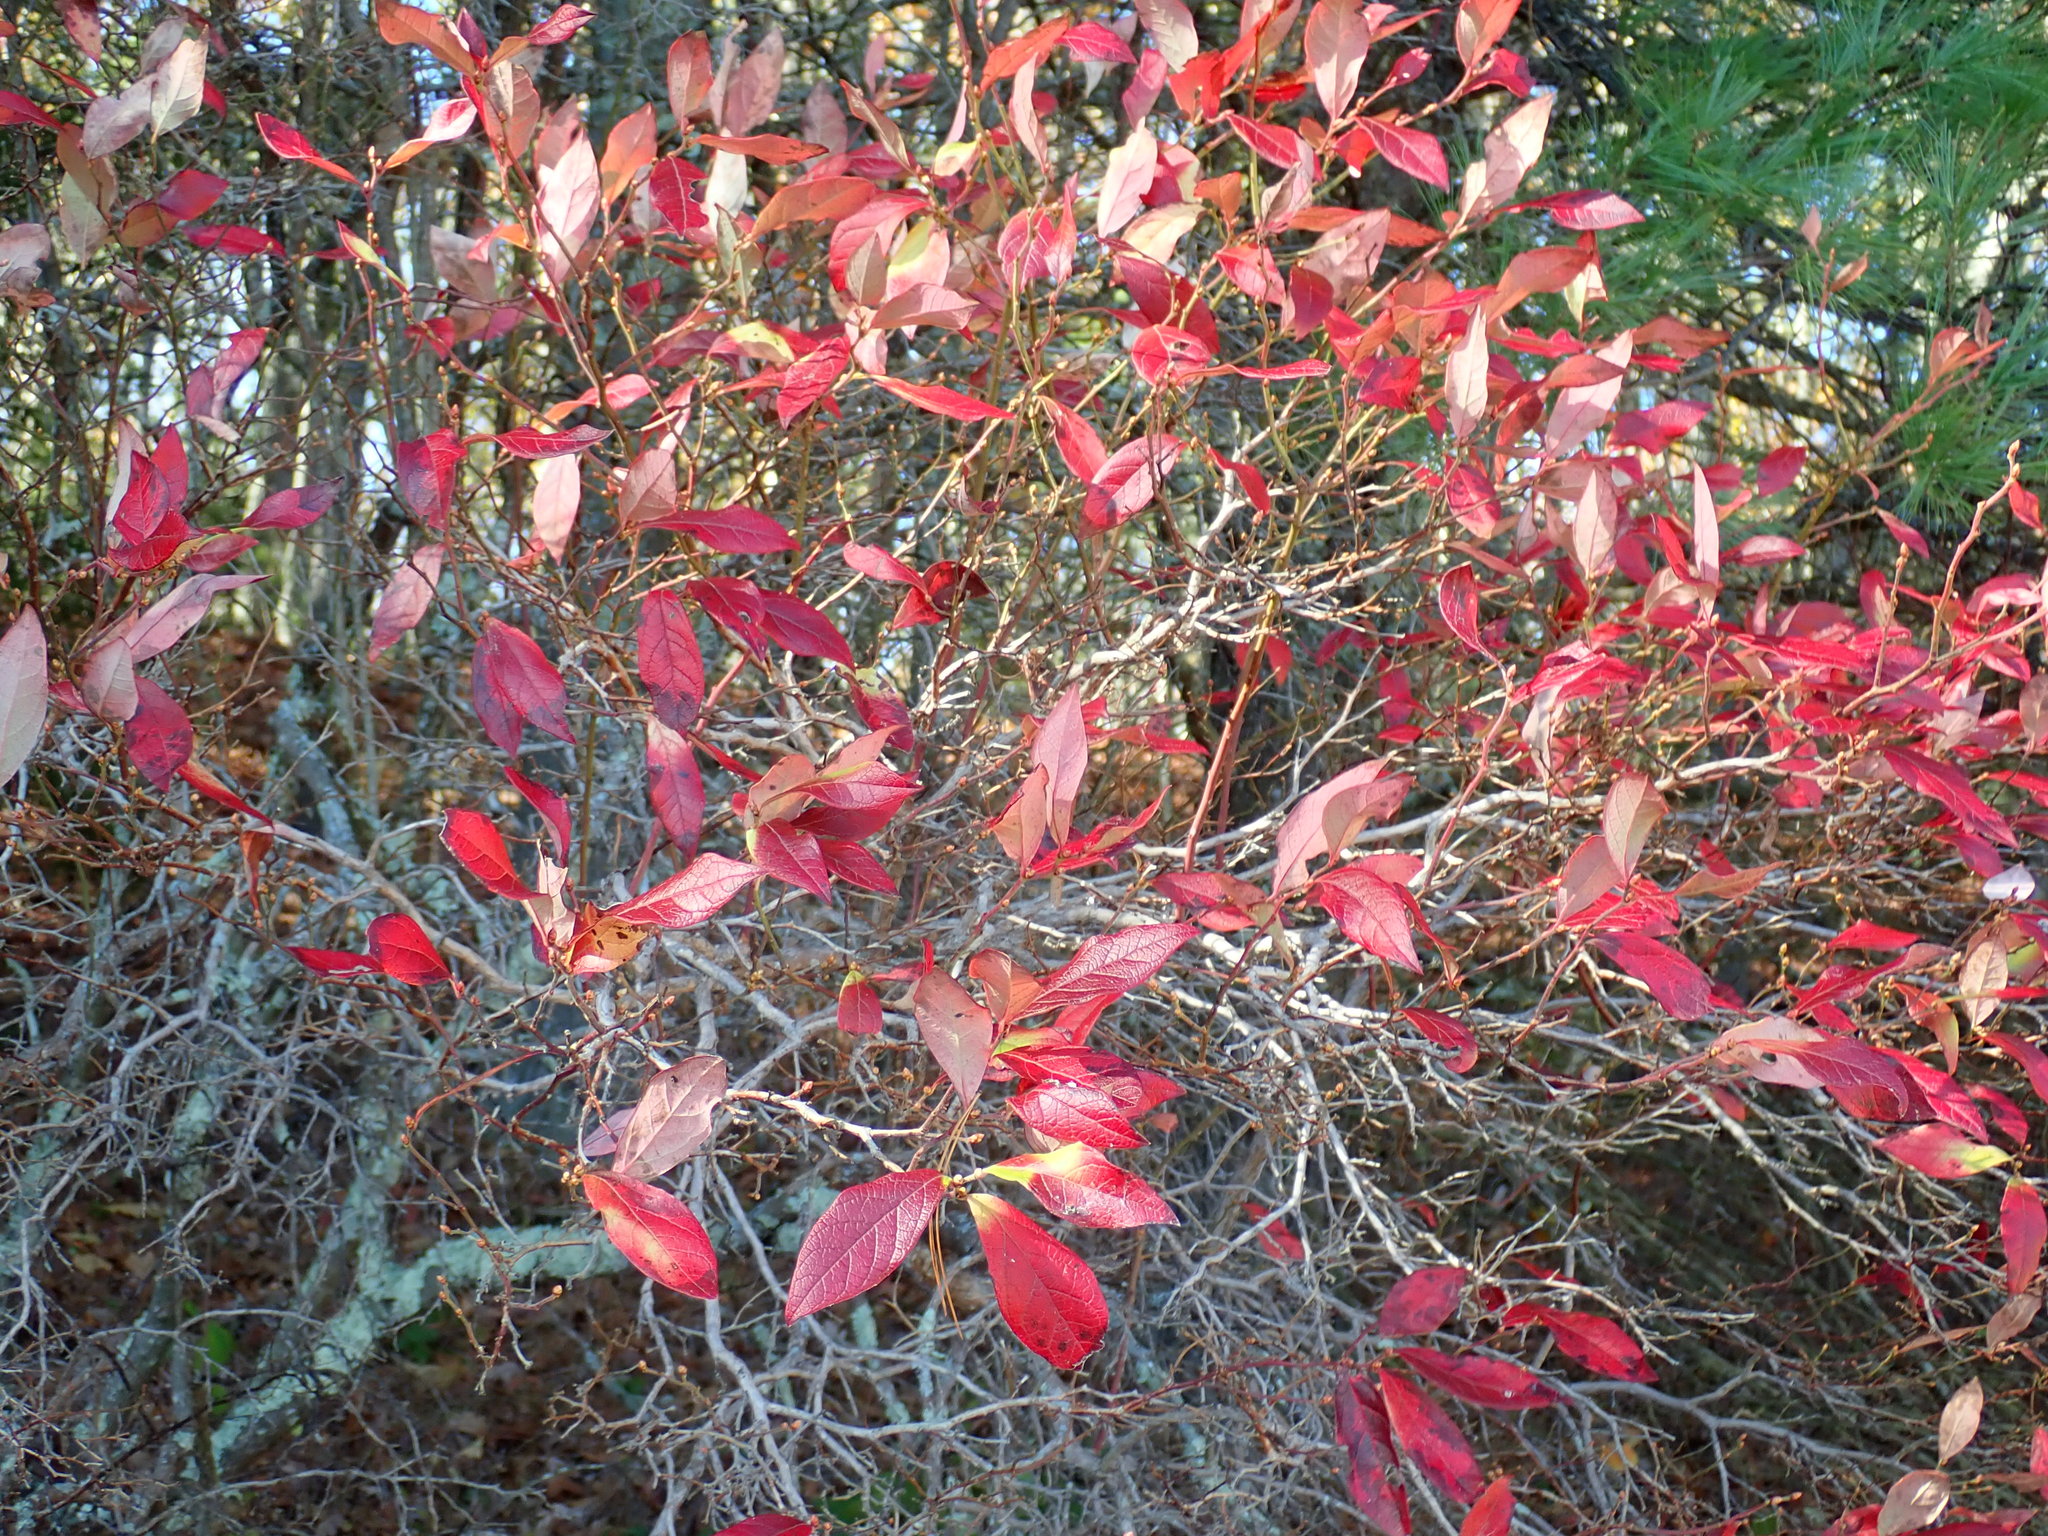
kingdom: Plantae
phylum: Tracheophyta
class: Magnoliopsida
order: Ericales
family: Ericaceae
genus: Vaccinium
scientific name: Vaccinium corymbosum
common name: Blueberry
